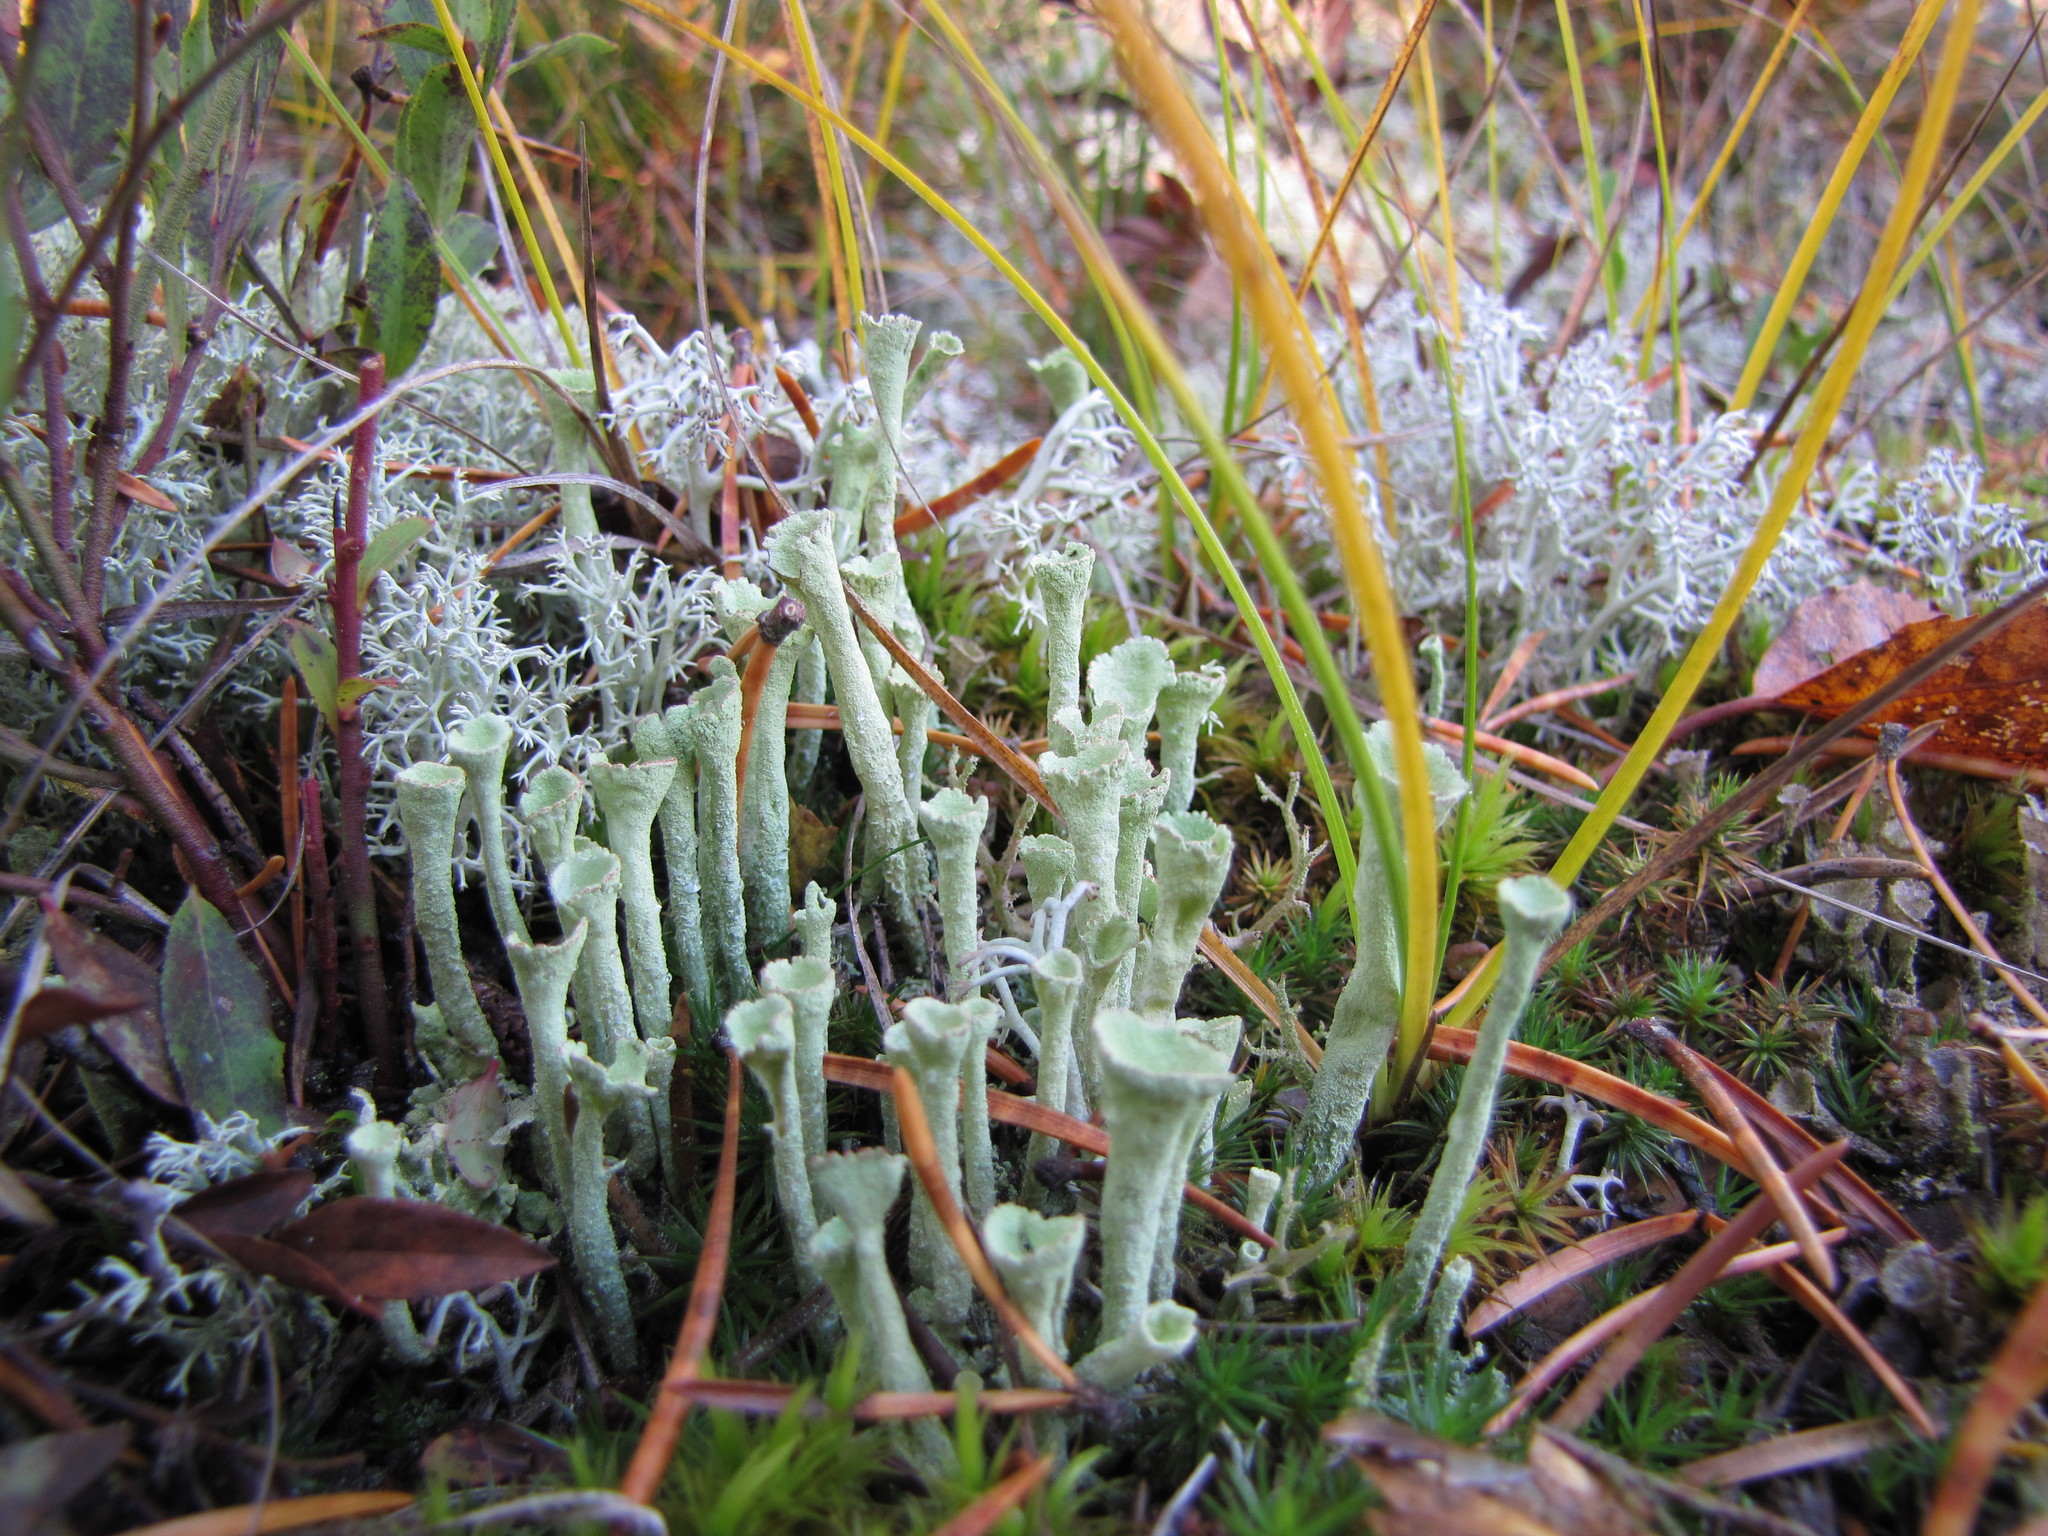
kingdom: Fungi
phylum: Ascomycota
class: Lecanoromycetes
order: Lecanorales
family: Cladoniaceae
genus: Cladonia
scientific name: Cladonia fimbriata
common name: Powdered trumpet lichen
